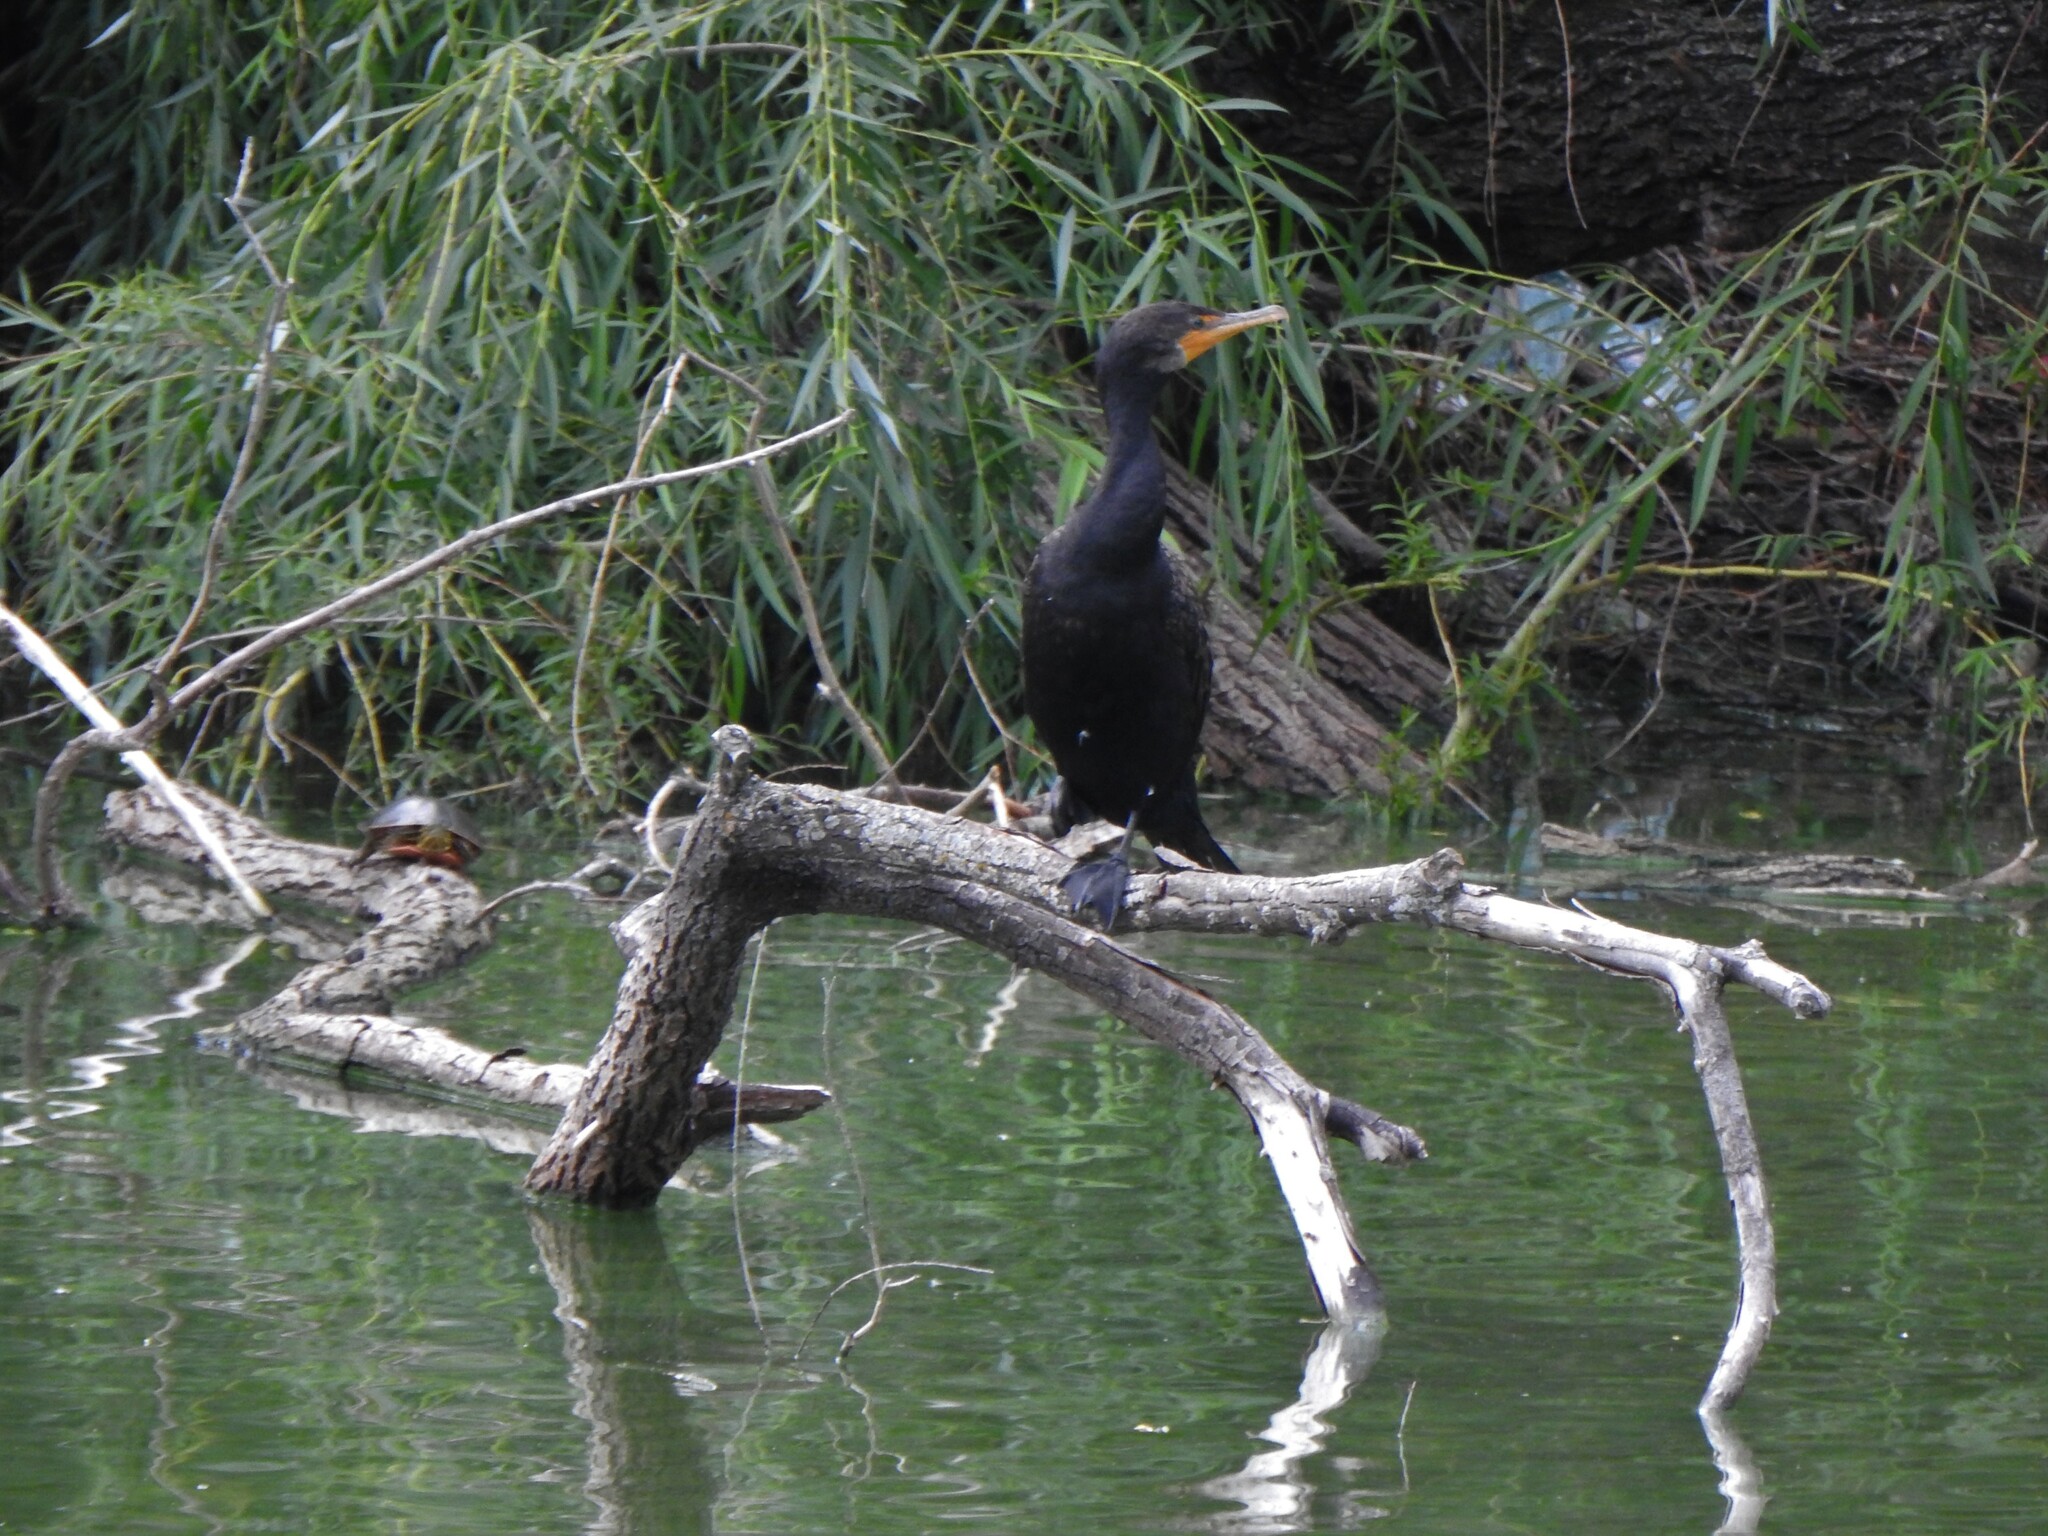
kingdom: Animalia
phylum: Chordata
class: Aves
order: Suliformes
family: Phalacrocoracidae
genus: Phalacrocorax
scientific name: Phalacrocorax auritus
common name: Double-crested cormorant
